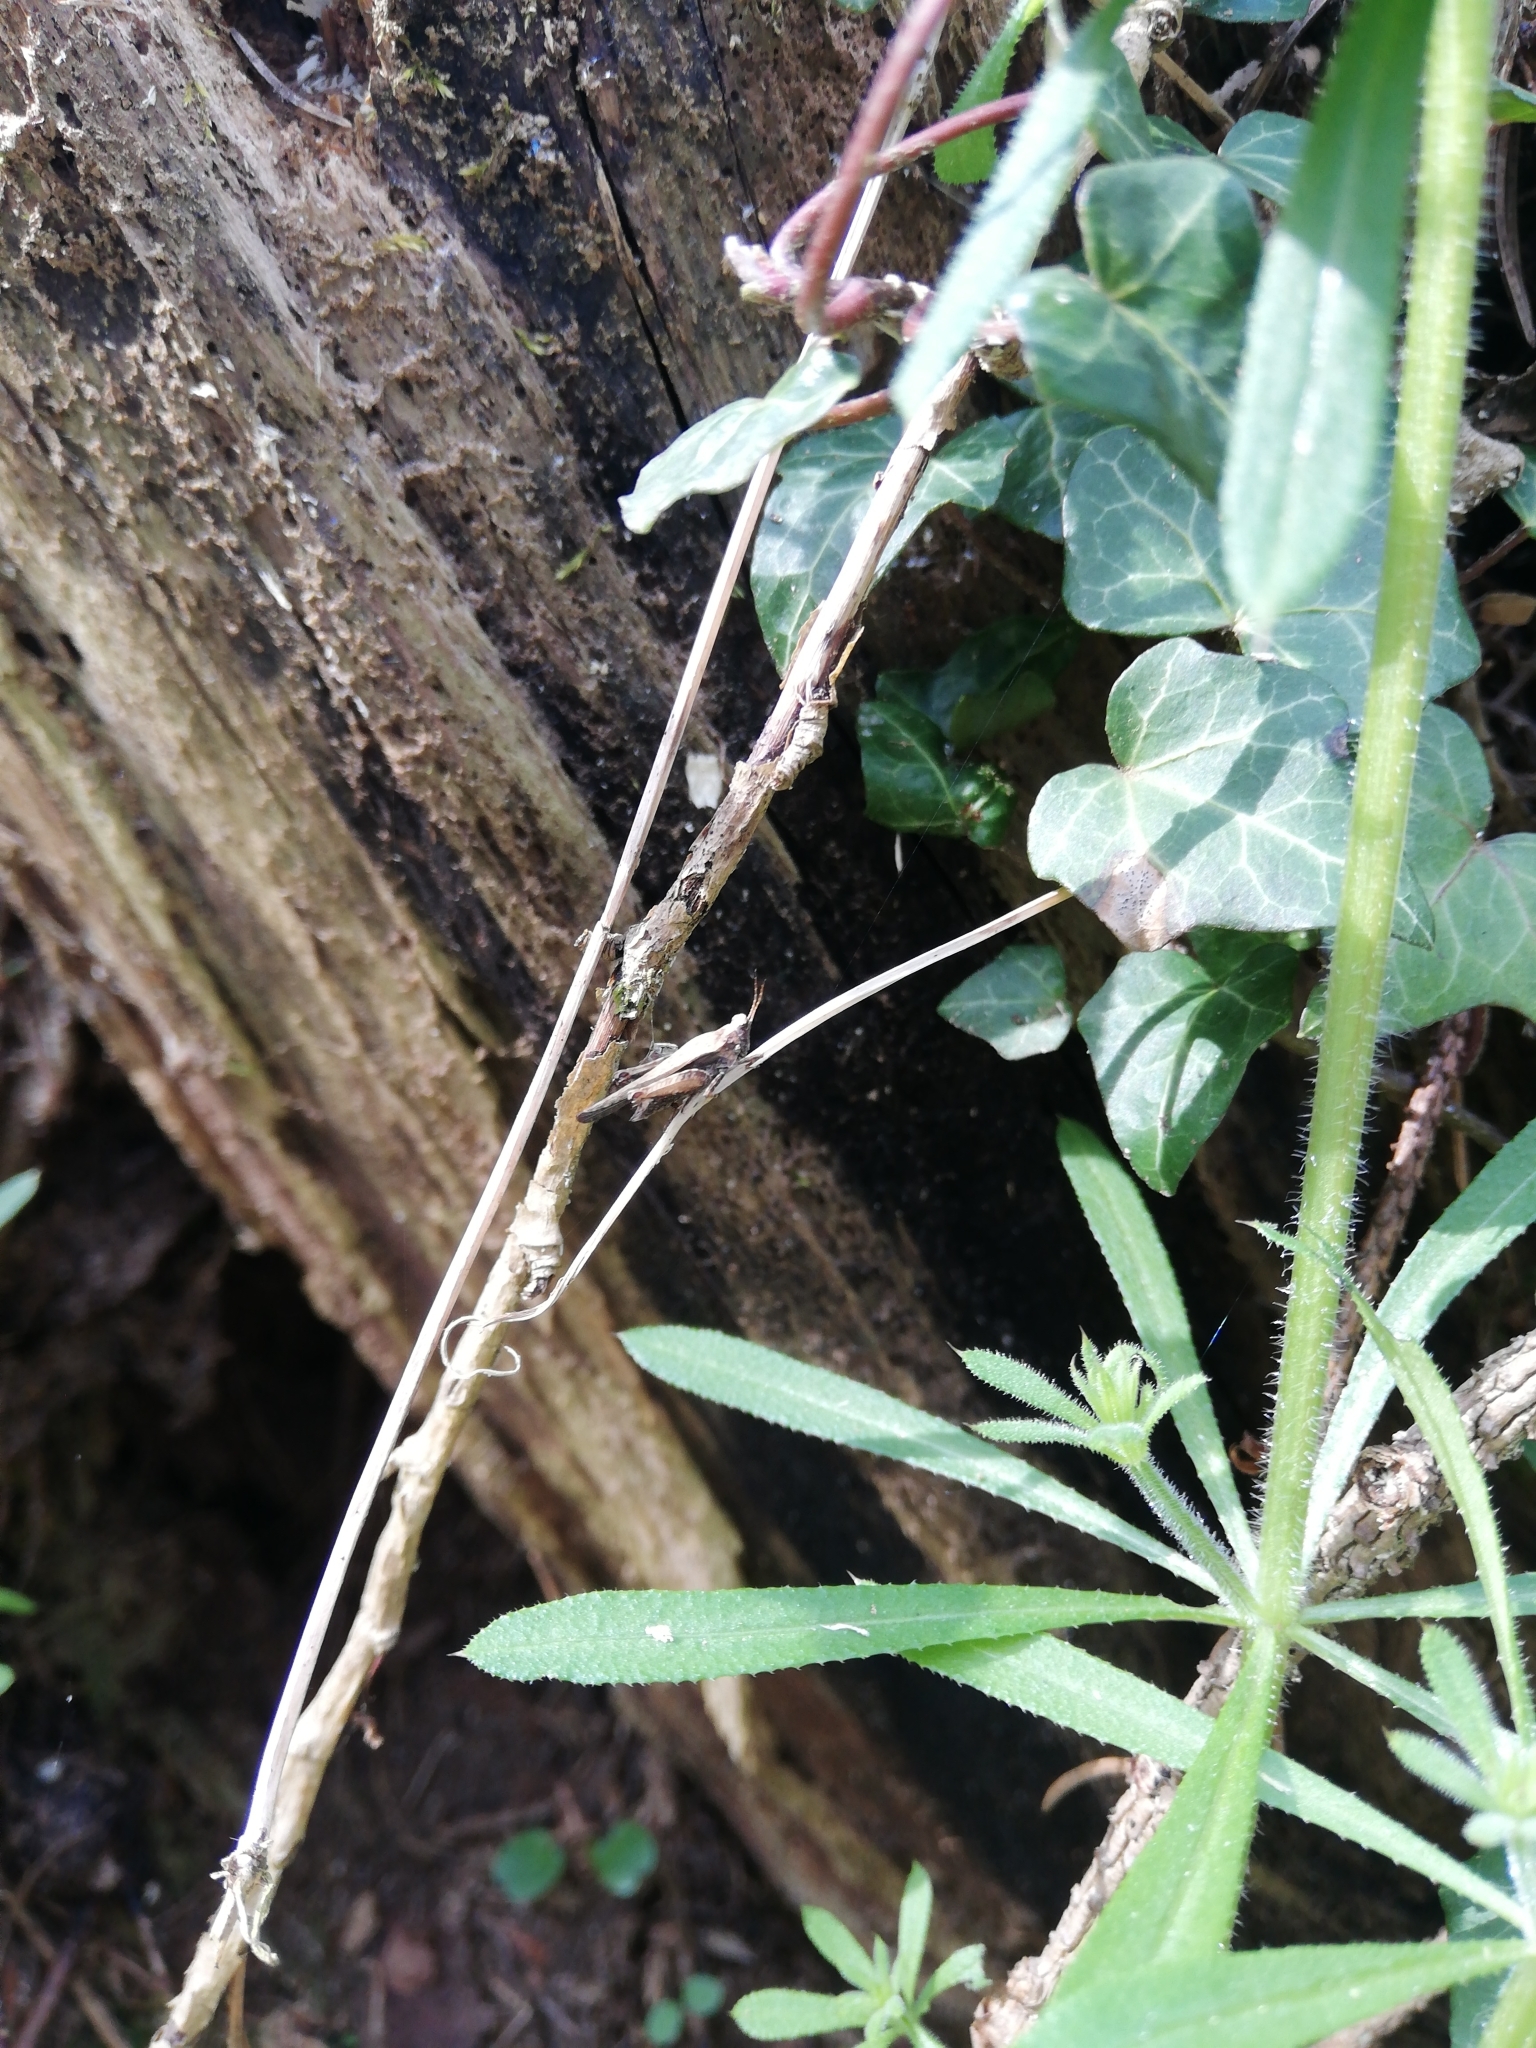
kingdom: Animalia
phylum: Arthropoda
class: Insecta
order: Orthoptera
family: Tetrigidae
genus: Tetrix
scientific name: Tetrix subulata
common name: Slender ground-hopper
